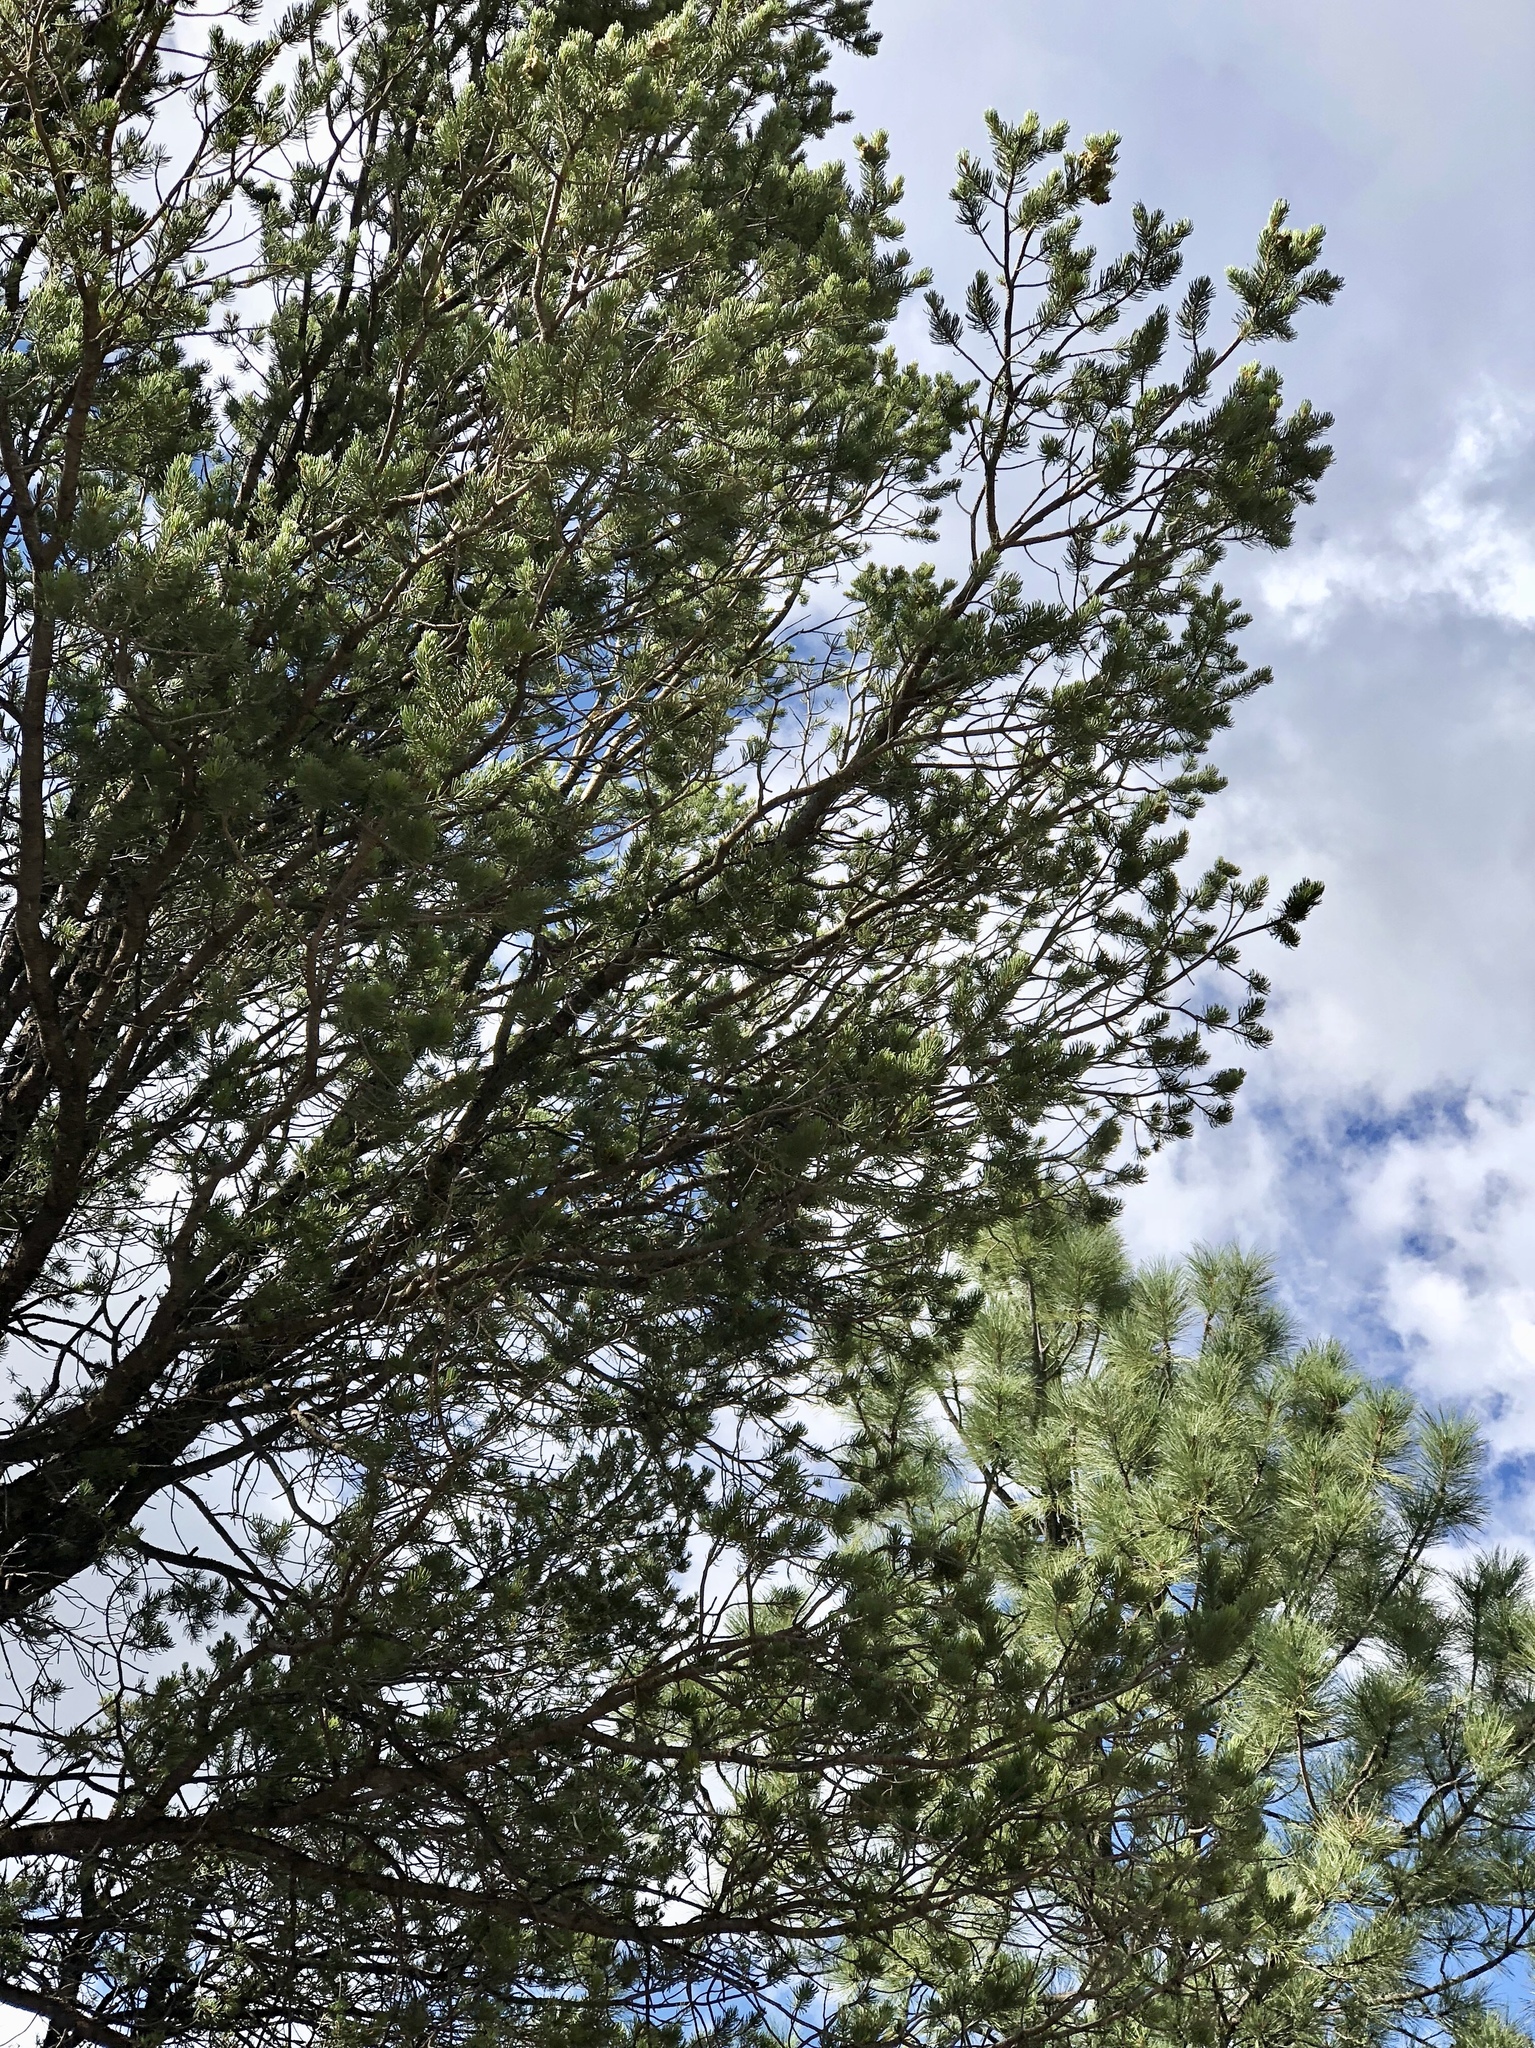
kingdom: Plantae
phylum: Tracheophyta
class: Pinopsida
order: Pinales
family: Pinaceae
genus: Pinus
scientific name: Pinus edulis
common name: Colorado pinyon
